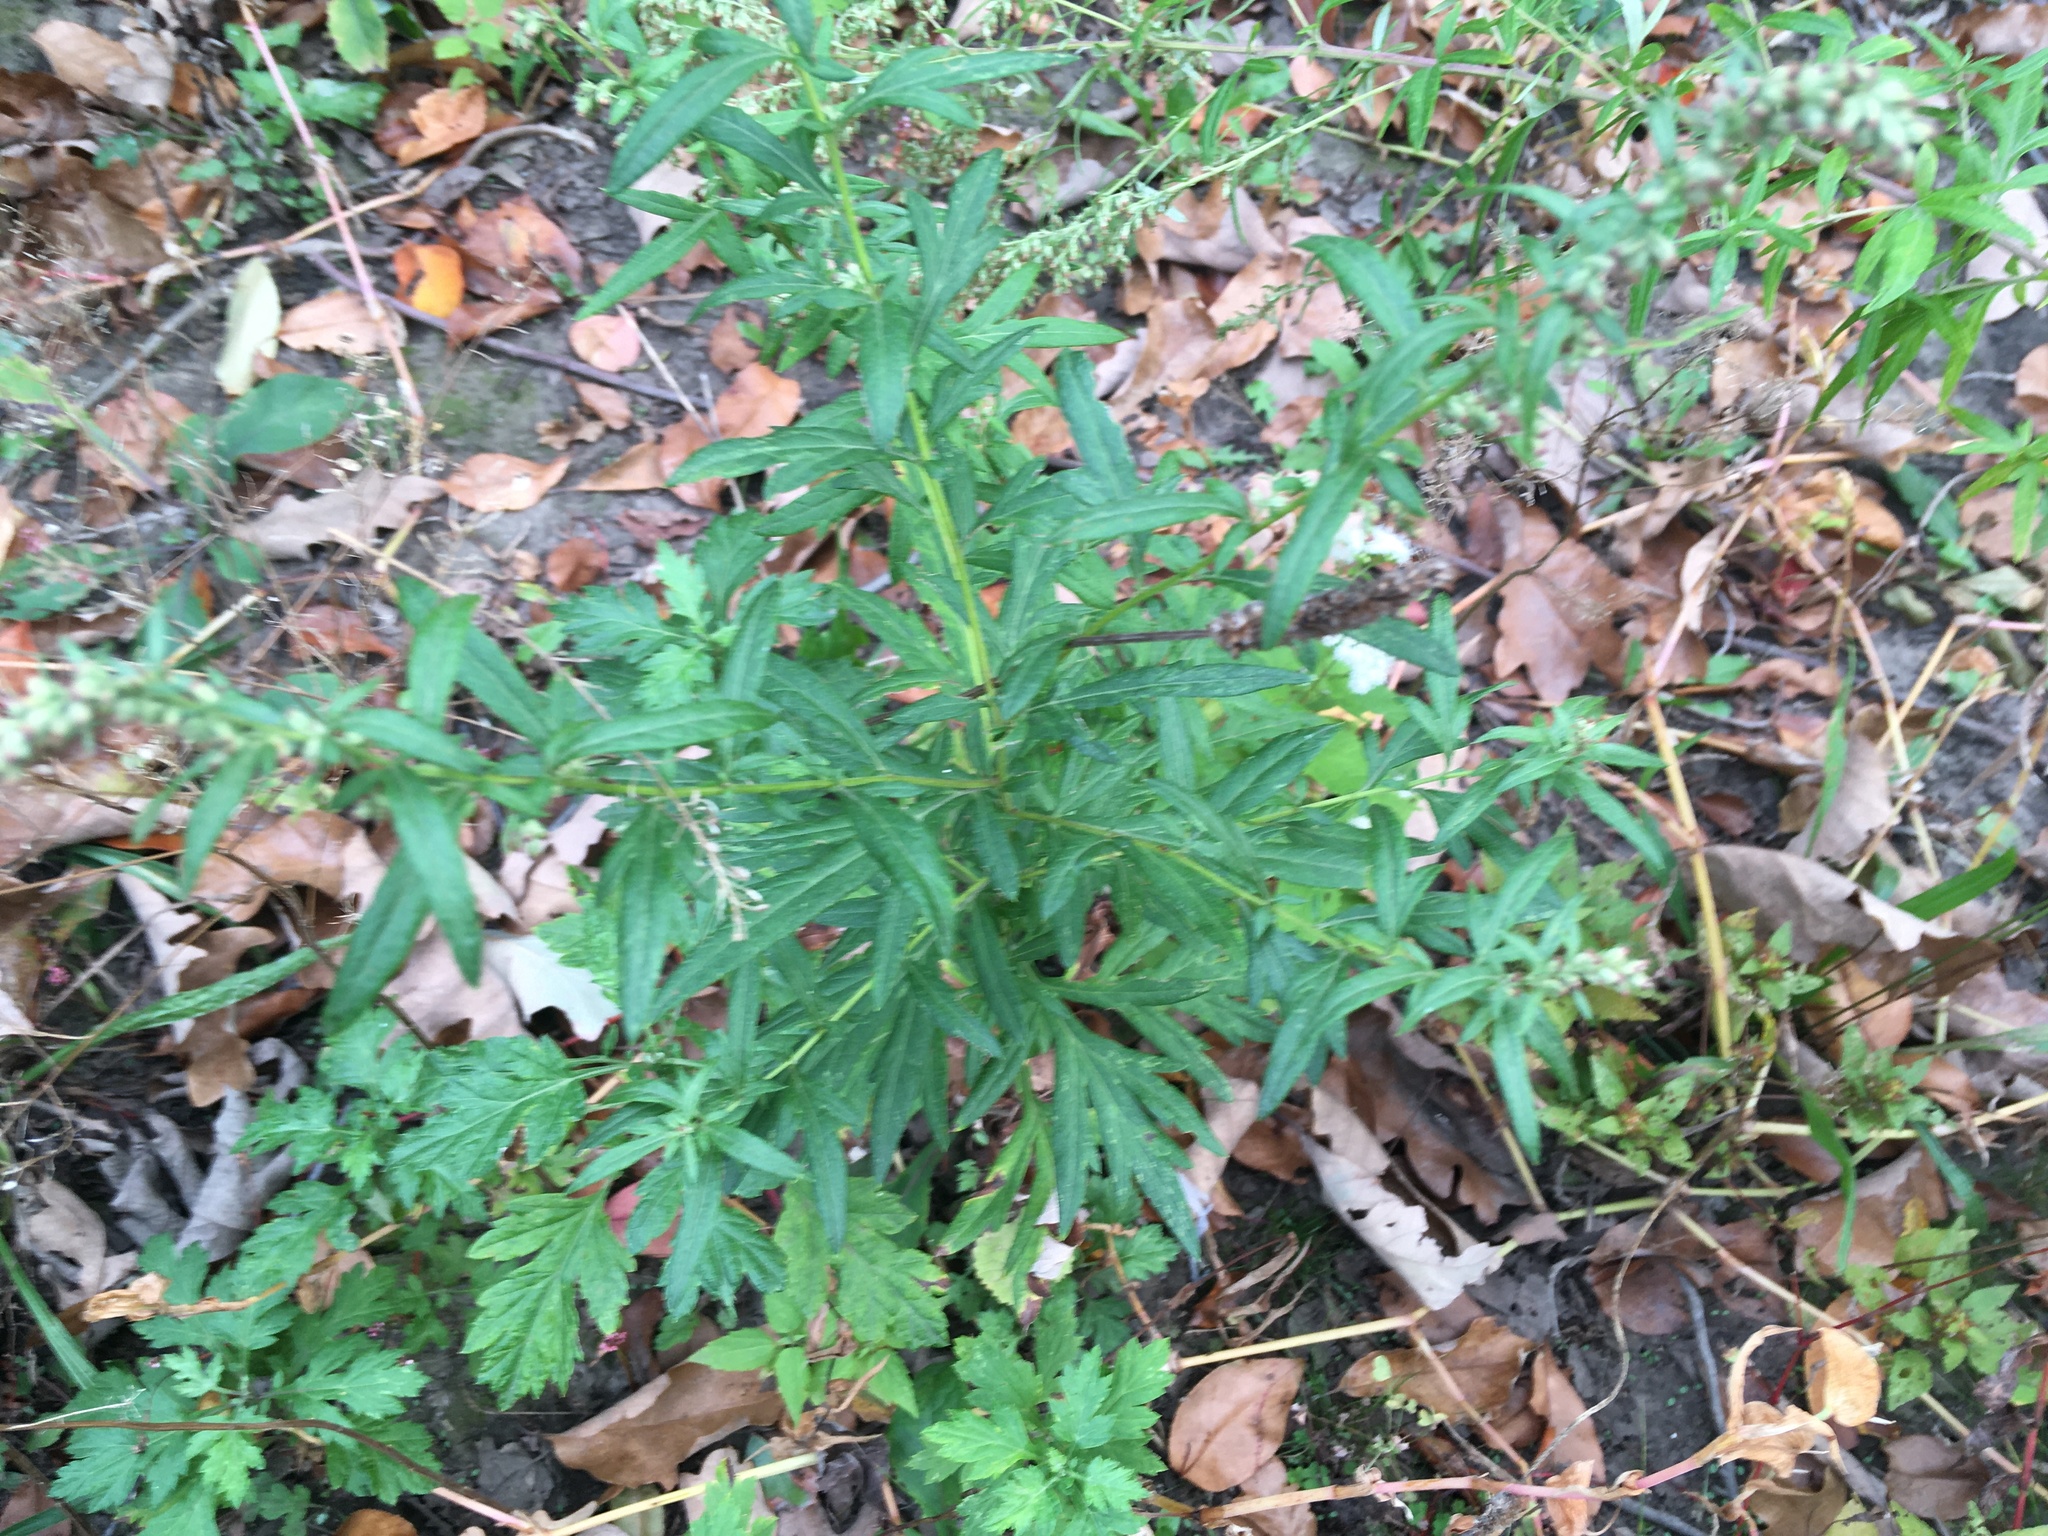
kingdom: Plantae
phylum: Tracheophyta
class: Magnoliopsida
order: Asterales
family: Asteraceae
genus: Artemisia
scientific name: Artemisia vulgaris
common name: Mugwort
